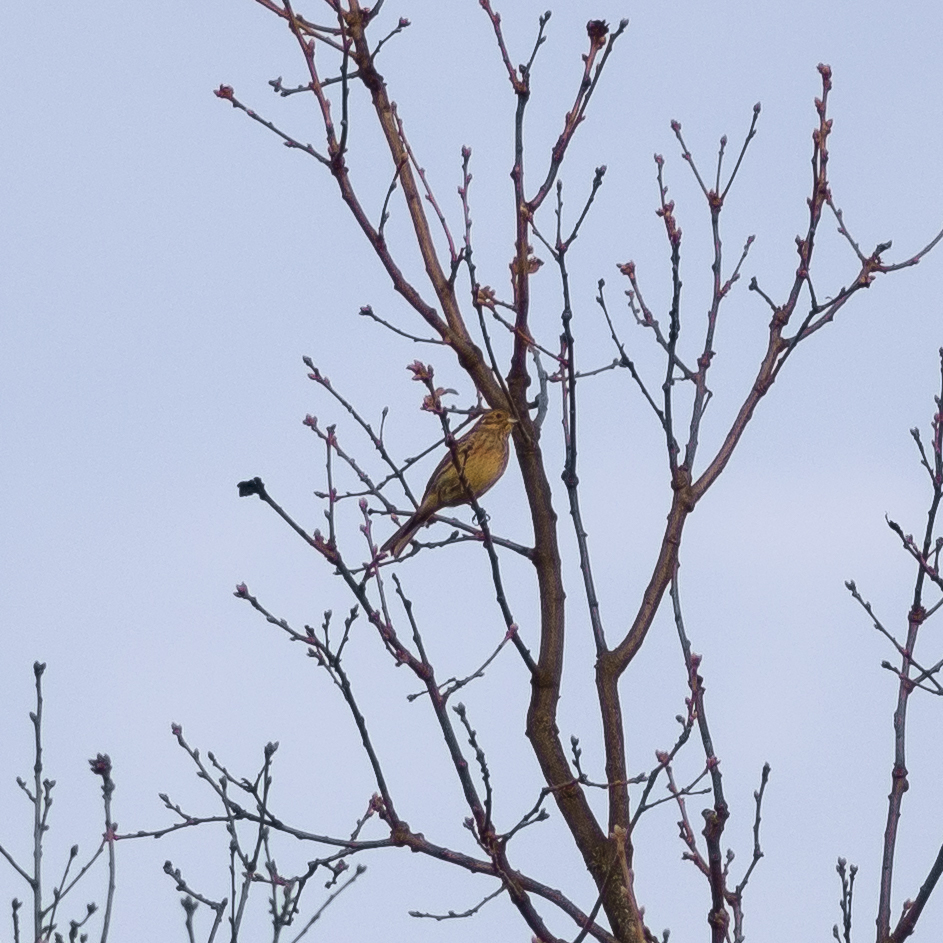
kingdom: Animalia
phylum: Chordata
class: Aves
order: Passeriformes
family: Emberizidae
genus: Emberiza
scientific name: Emberiza cirlus
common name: Cirl bunting
